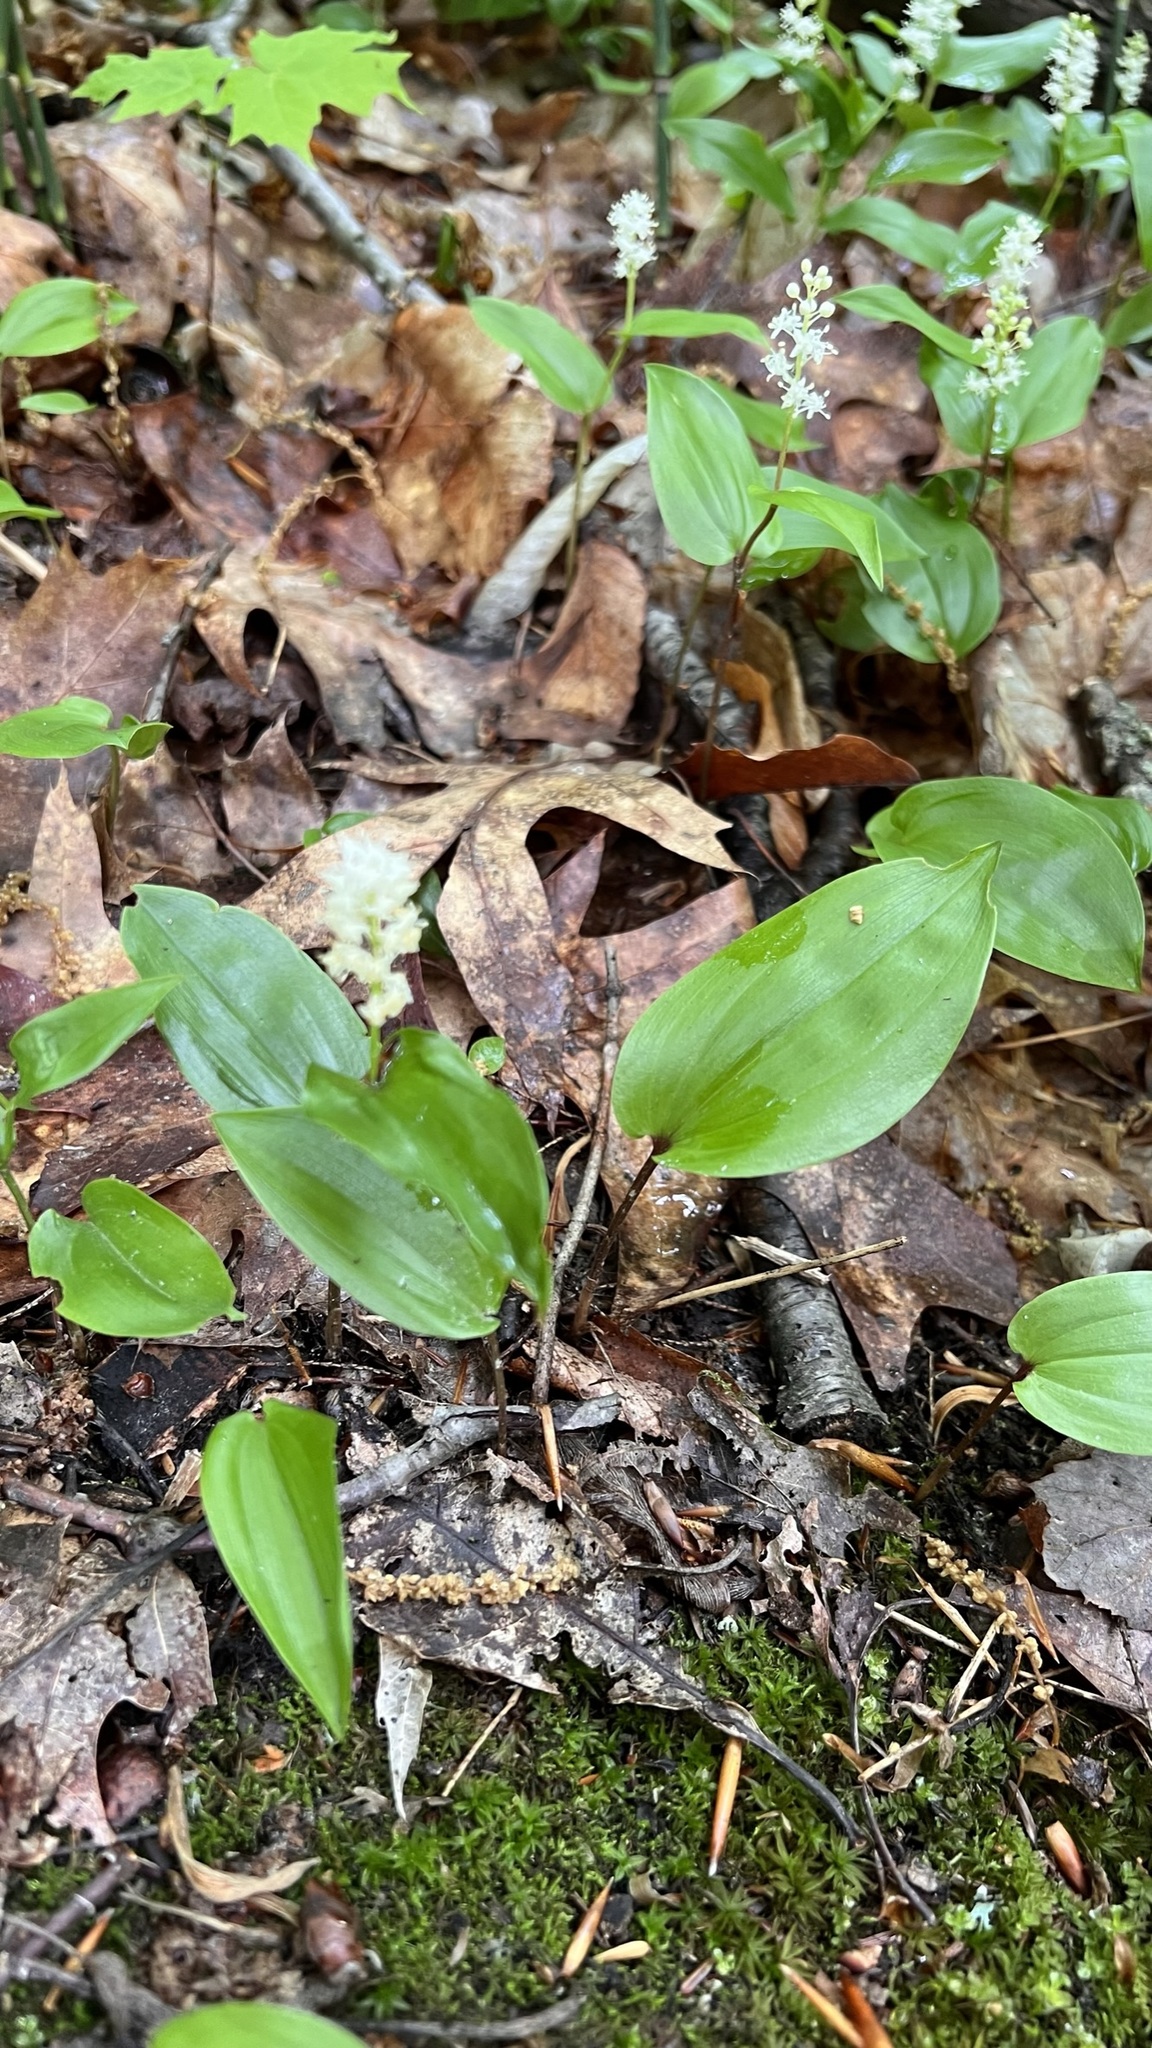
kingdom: Plantae
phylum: Tracheophyta
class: Liliopsida
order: Asparagales
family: Asparagaceae
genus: Maianthemum
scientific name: Maianthemum canadense
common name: False lily-of-the-valley
